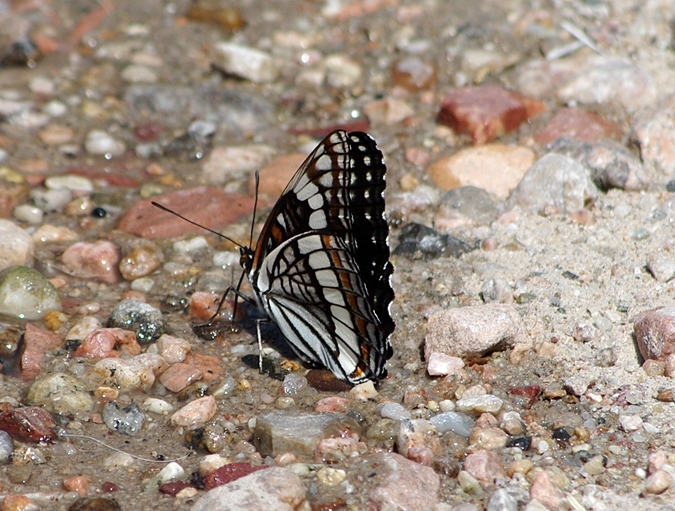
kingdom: Animalia
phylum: Arthropoda
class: Insecta
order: Lepidoptera
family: Nymphalidae
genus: Limenitis
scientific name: Limenitis weidemeyerii
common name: Weidemeyer's admiral
